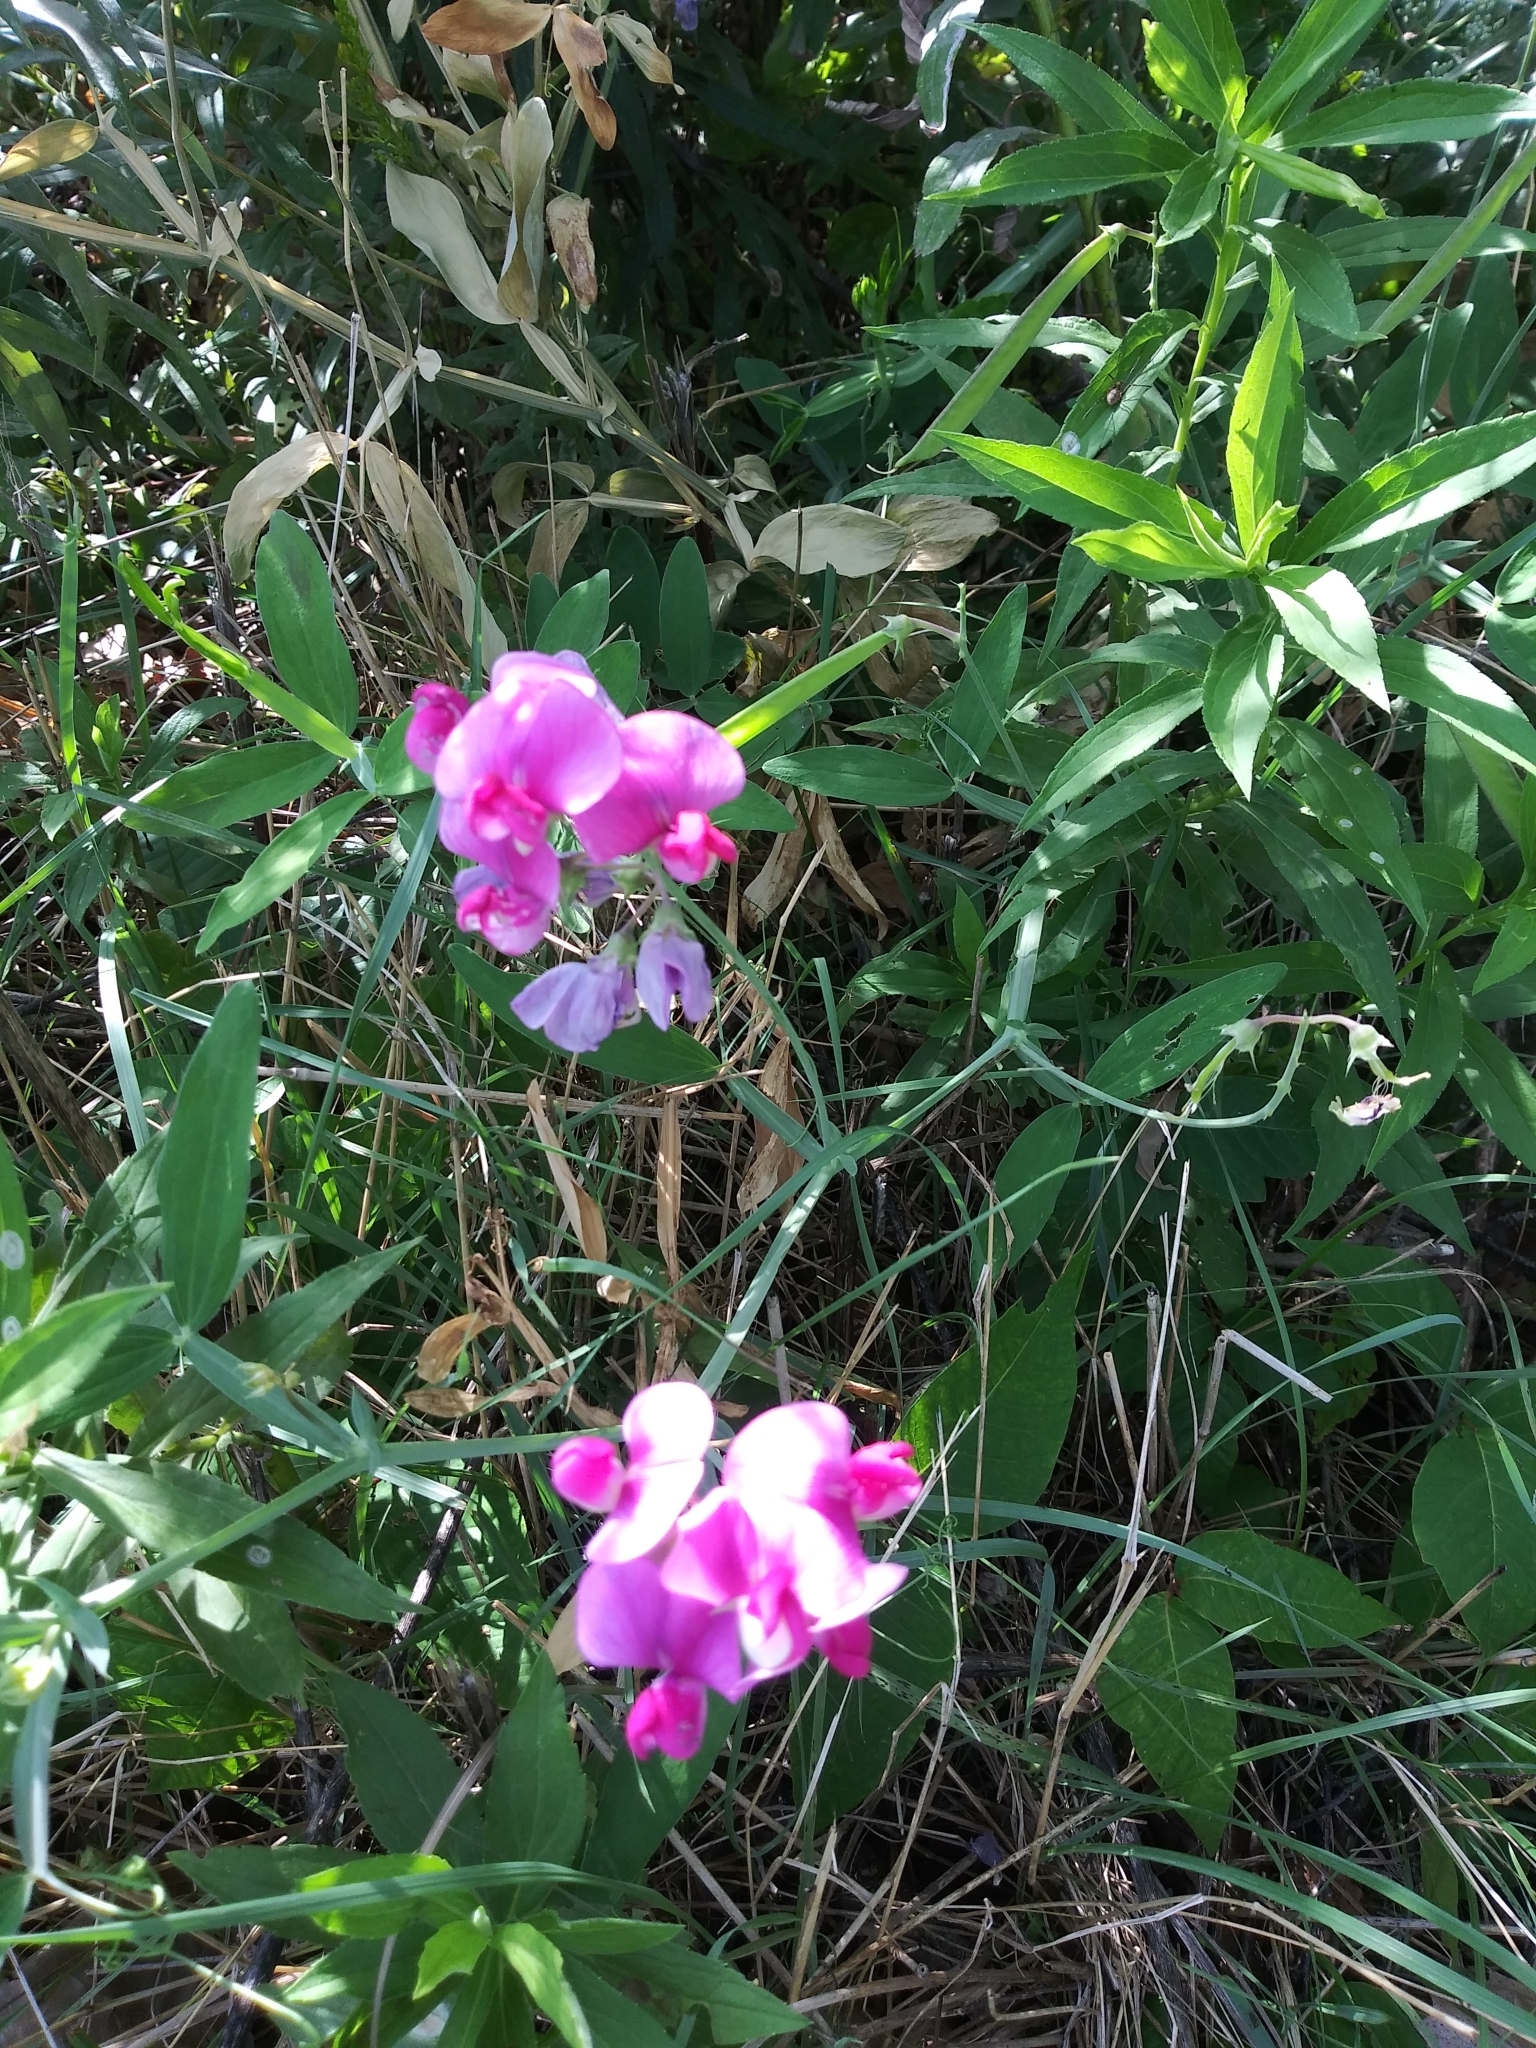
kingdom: Plantae
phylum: Tracheophyta
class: Magnoliopsida
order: Fabales
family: Fabaceae
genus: Lathyrus
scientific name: Lathyrus latifolius
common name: Perennial pea
